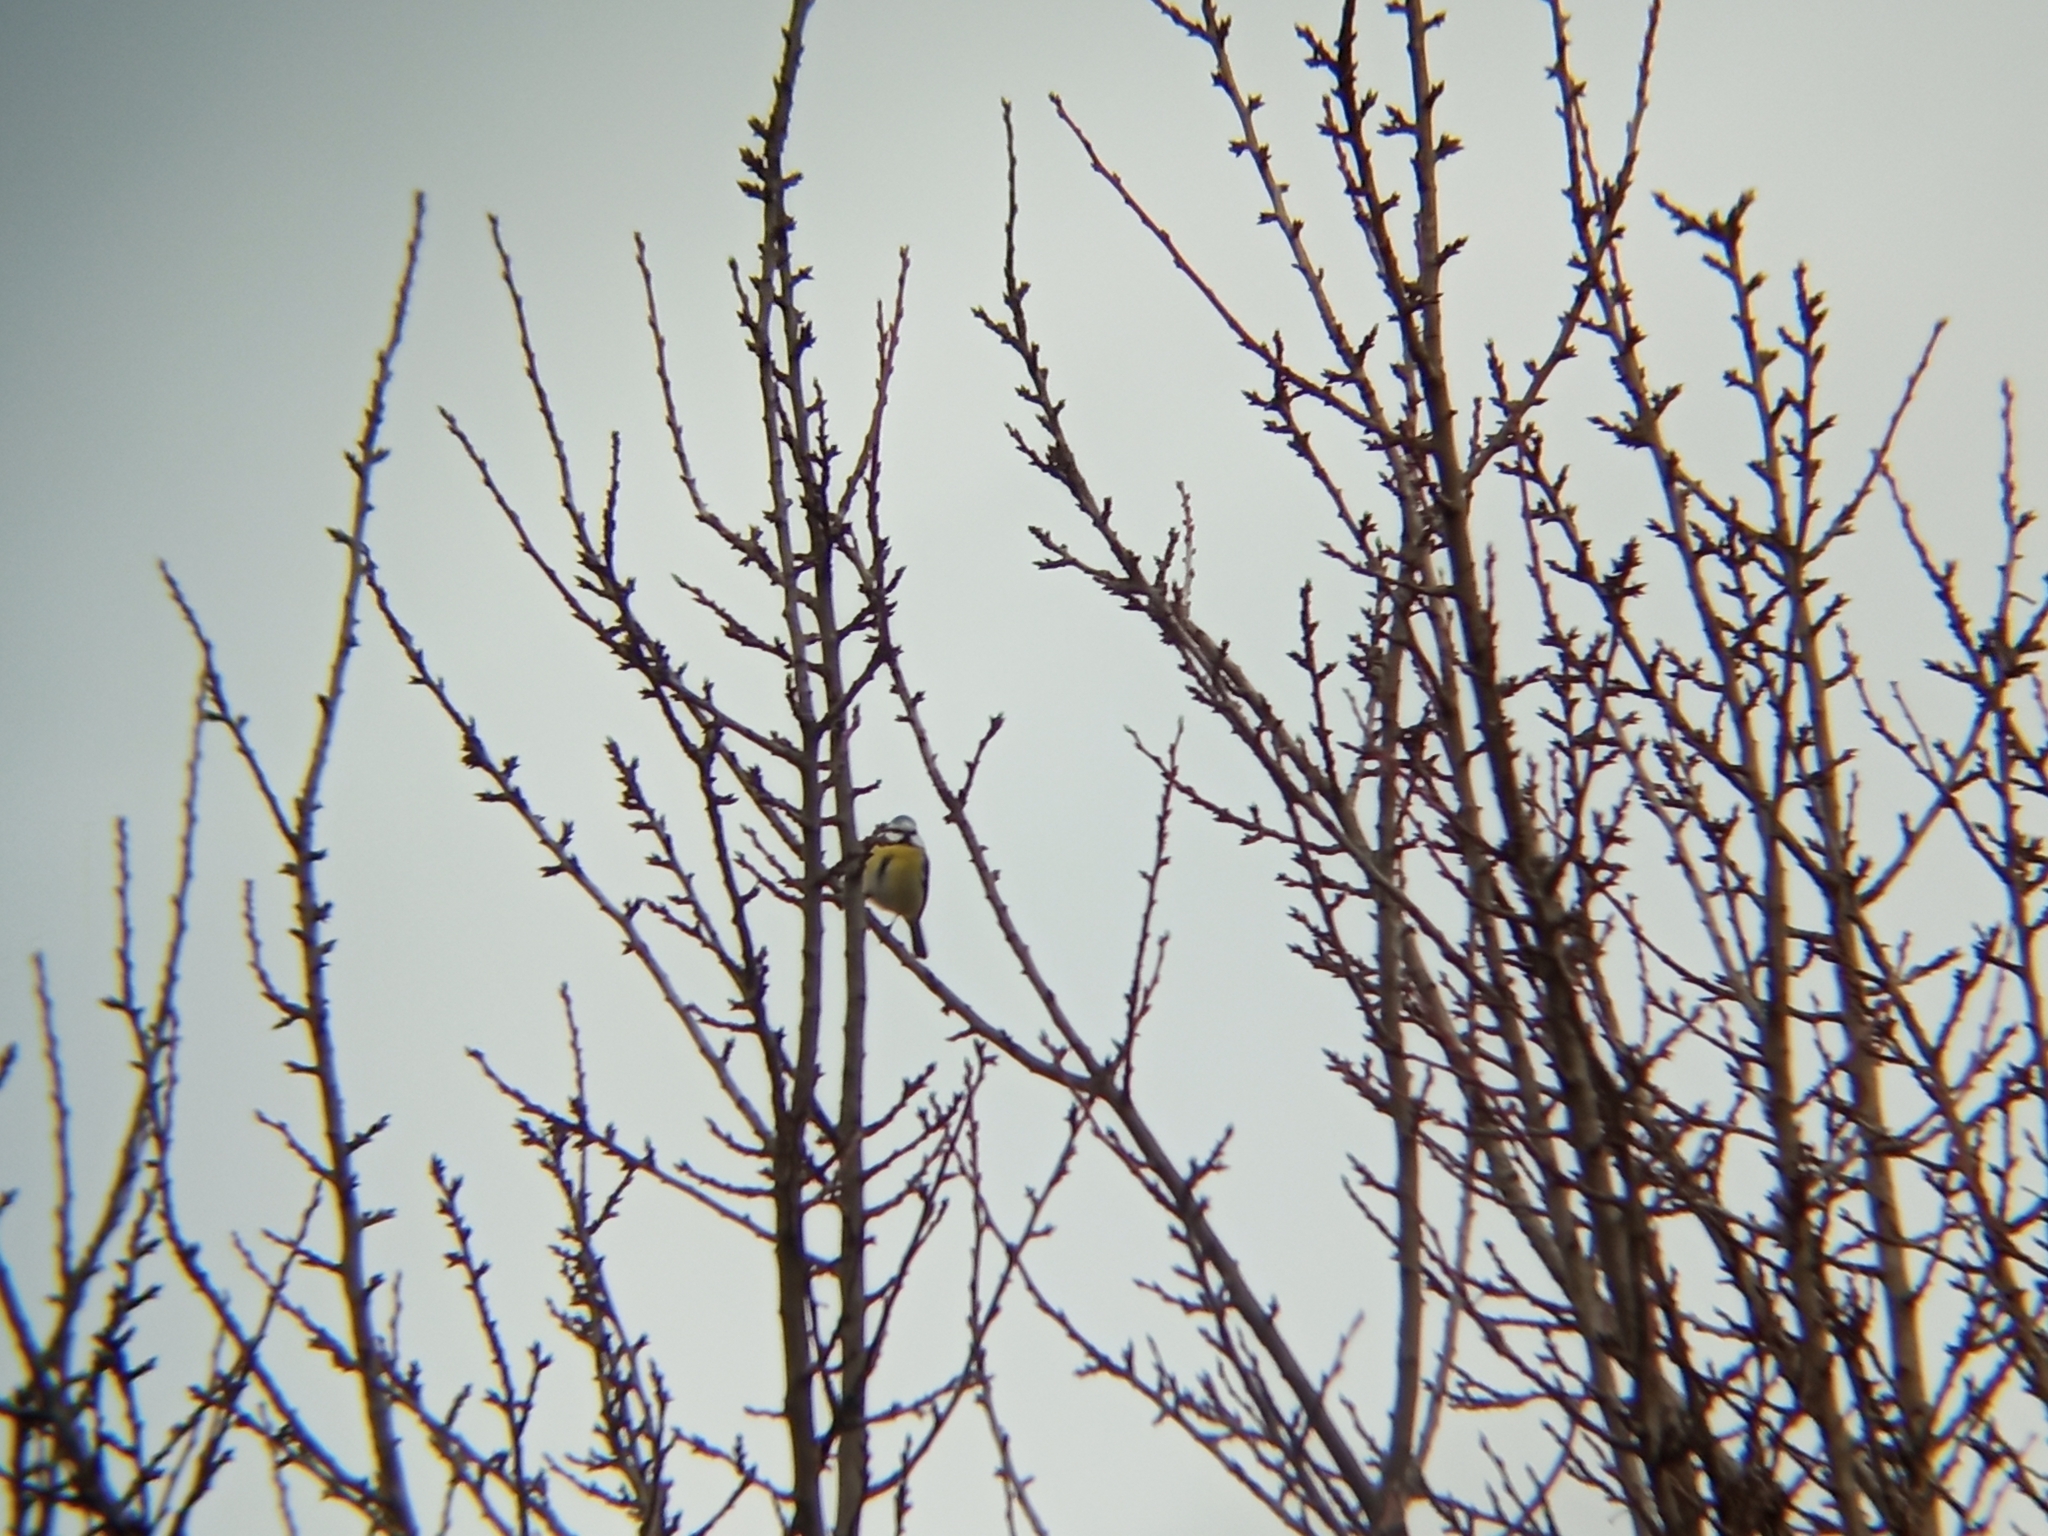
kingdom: Animalia
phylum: Chordata
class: Aves
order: Passeriformes
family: Paridae
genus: Cyanistes
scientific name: Cyanistes caeruleus
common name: Eurasian blue tit
